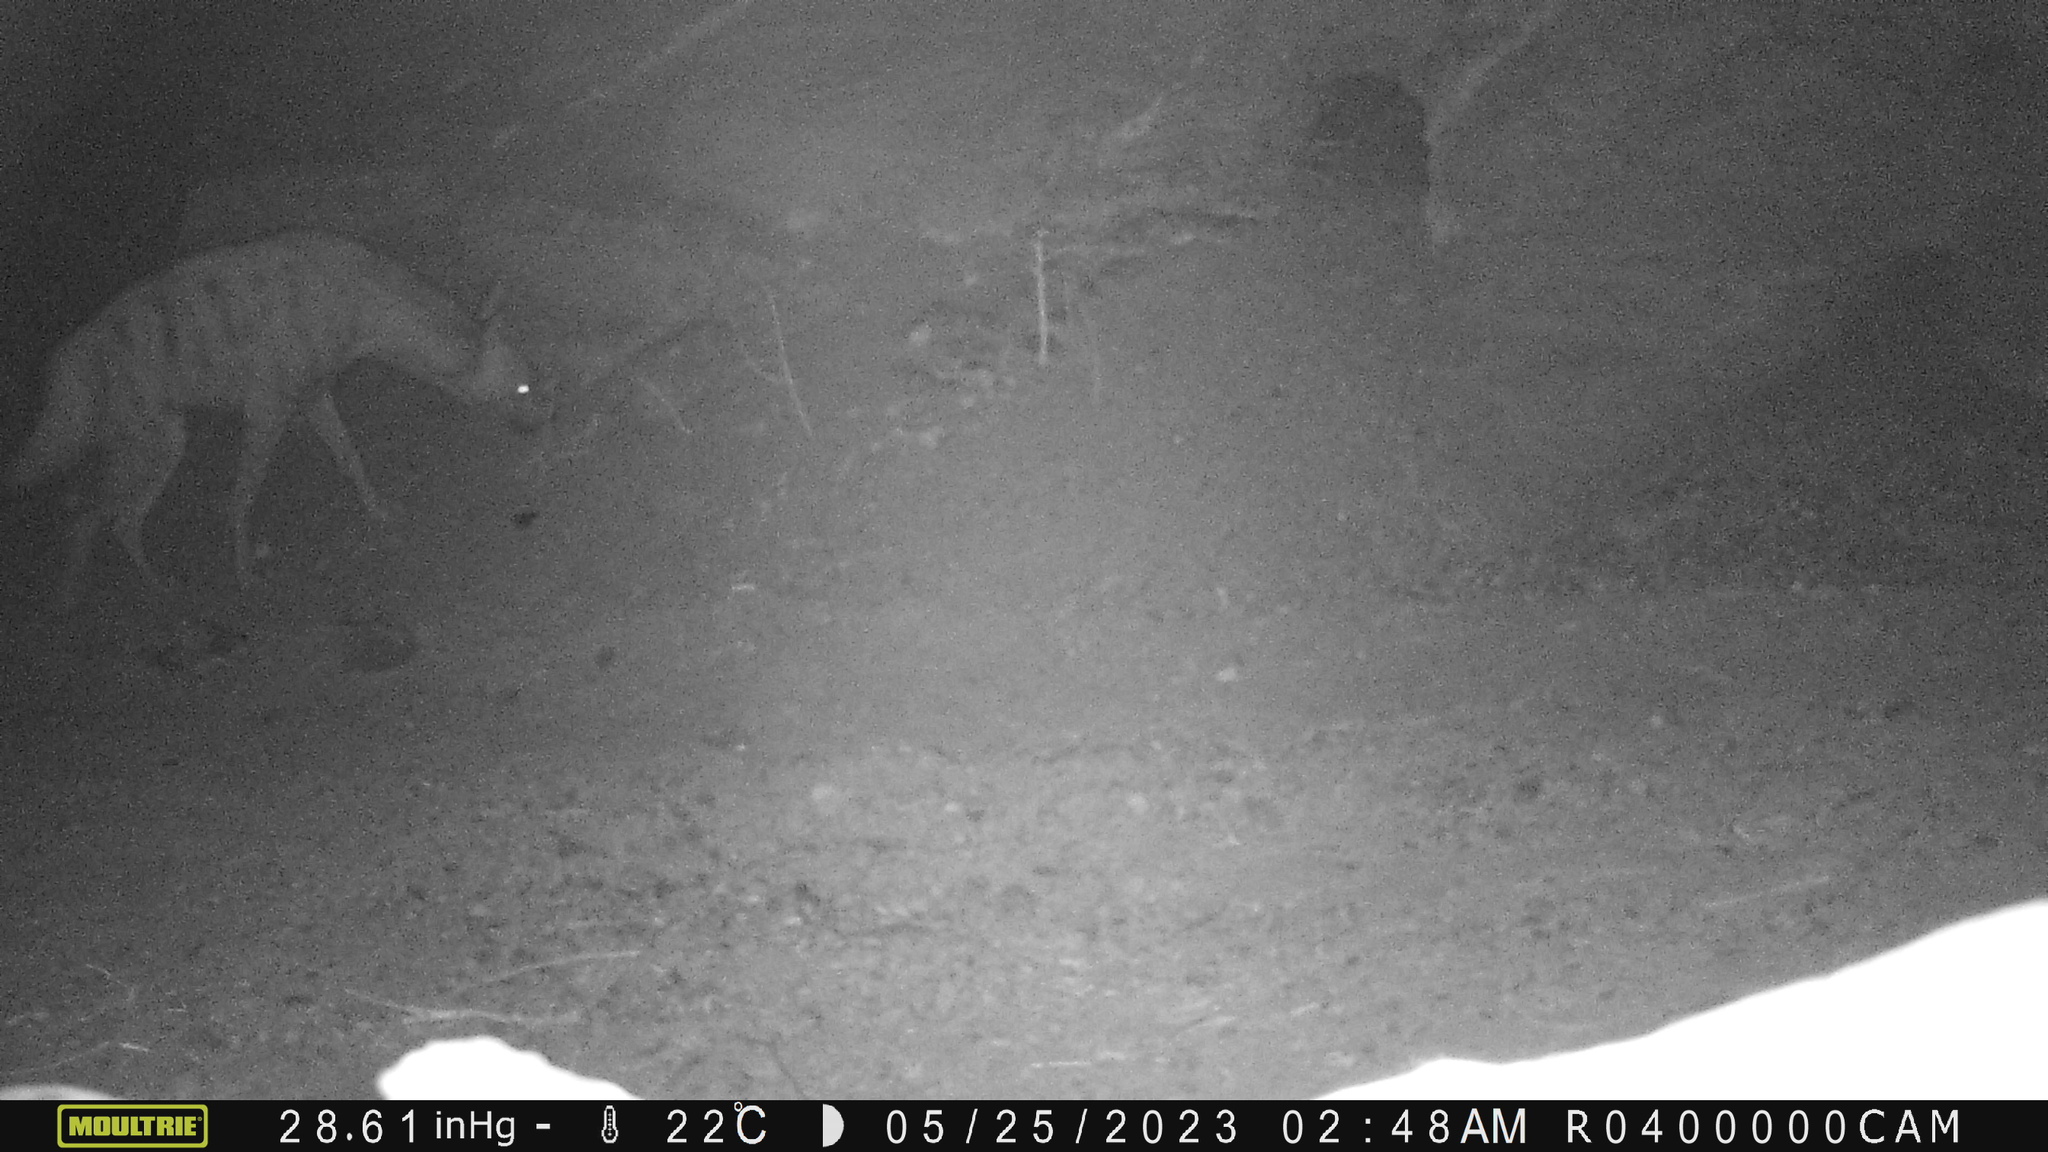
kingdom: Animalia
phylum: Chordata
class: Mammalia
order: Carnivora
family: Hyaenidae
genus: Hyaena
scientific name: Hyaena hyaena
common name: Striped hyaena
